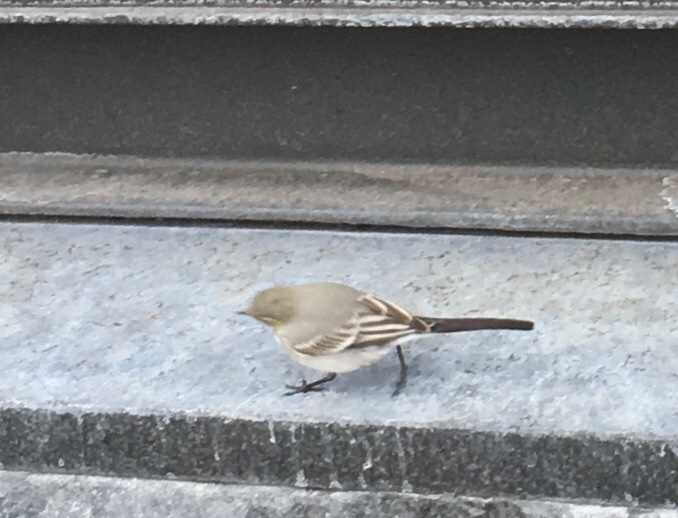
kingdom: Animalia
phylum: Chordata
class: Aves
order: Passeriformes
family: Motacillidae
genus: Motacilla
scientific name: Motacilla alba
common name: White wagtail
